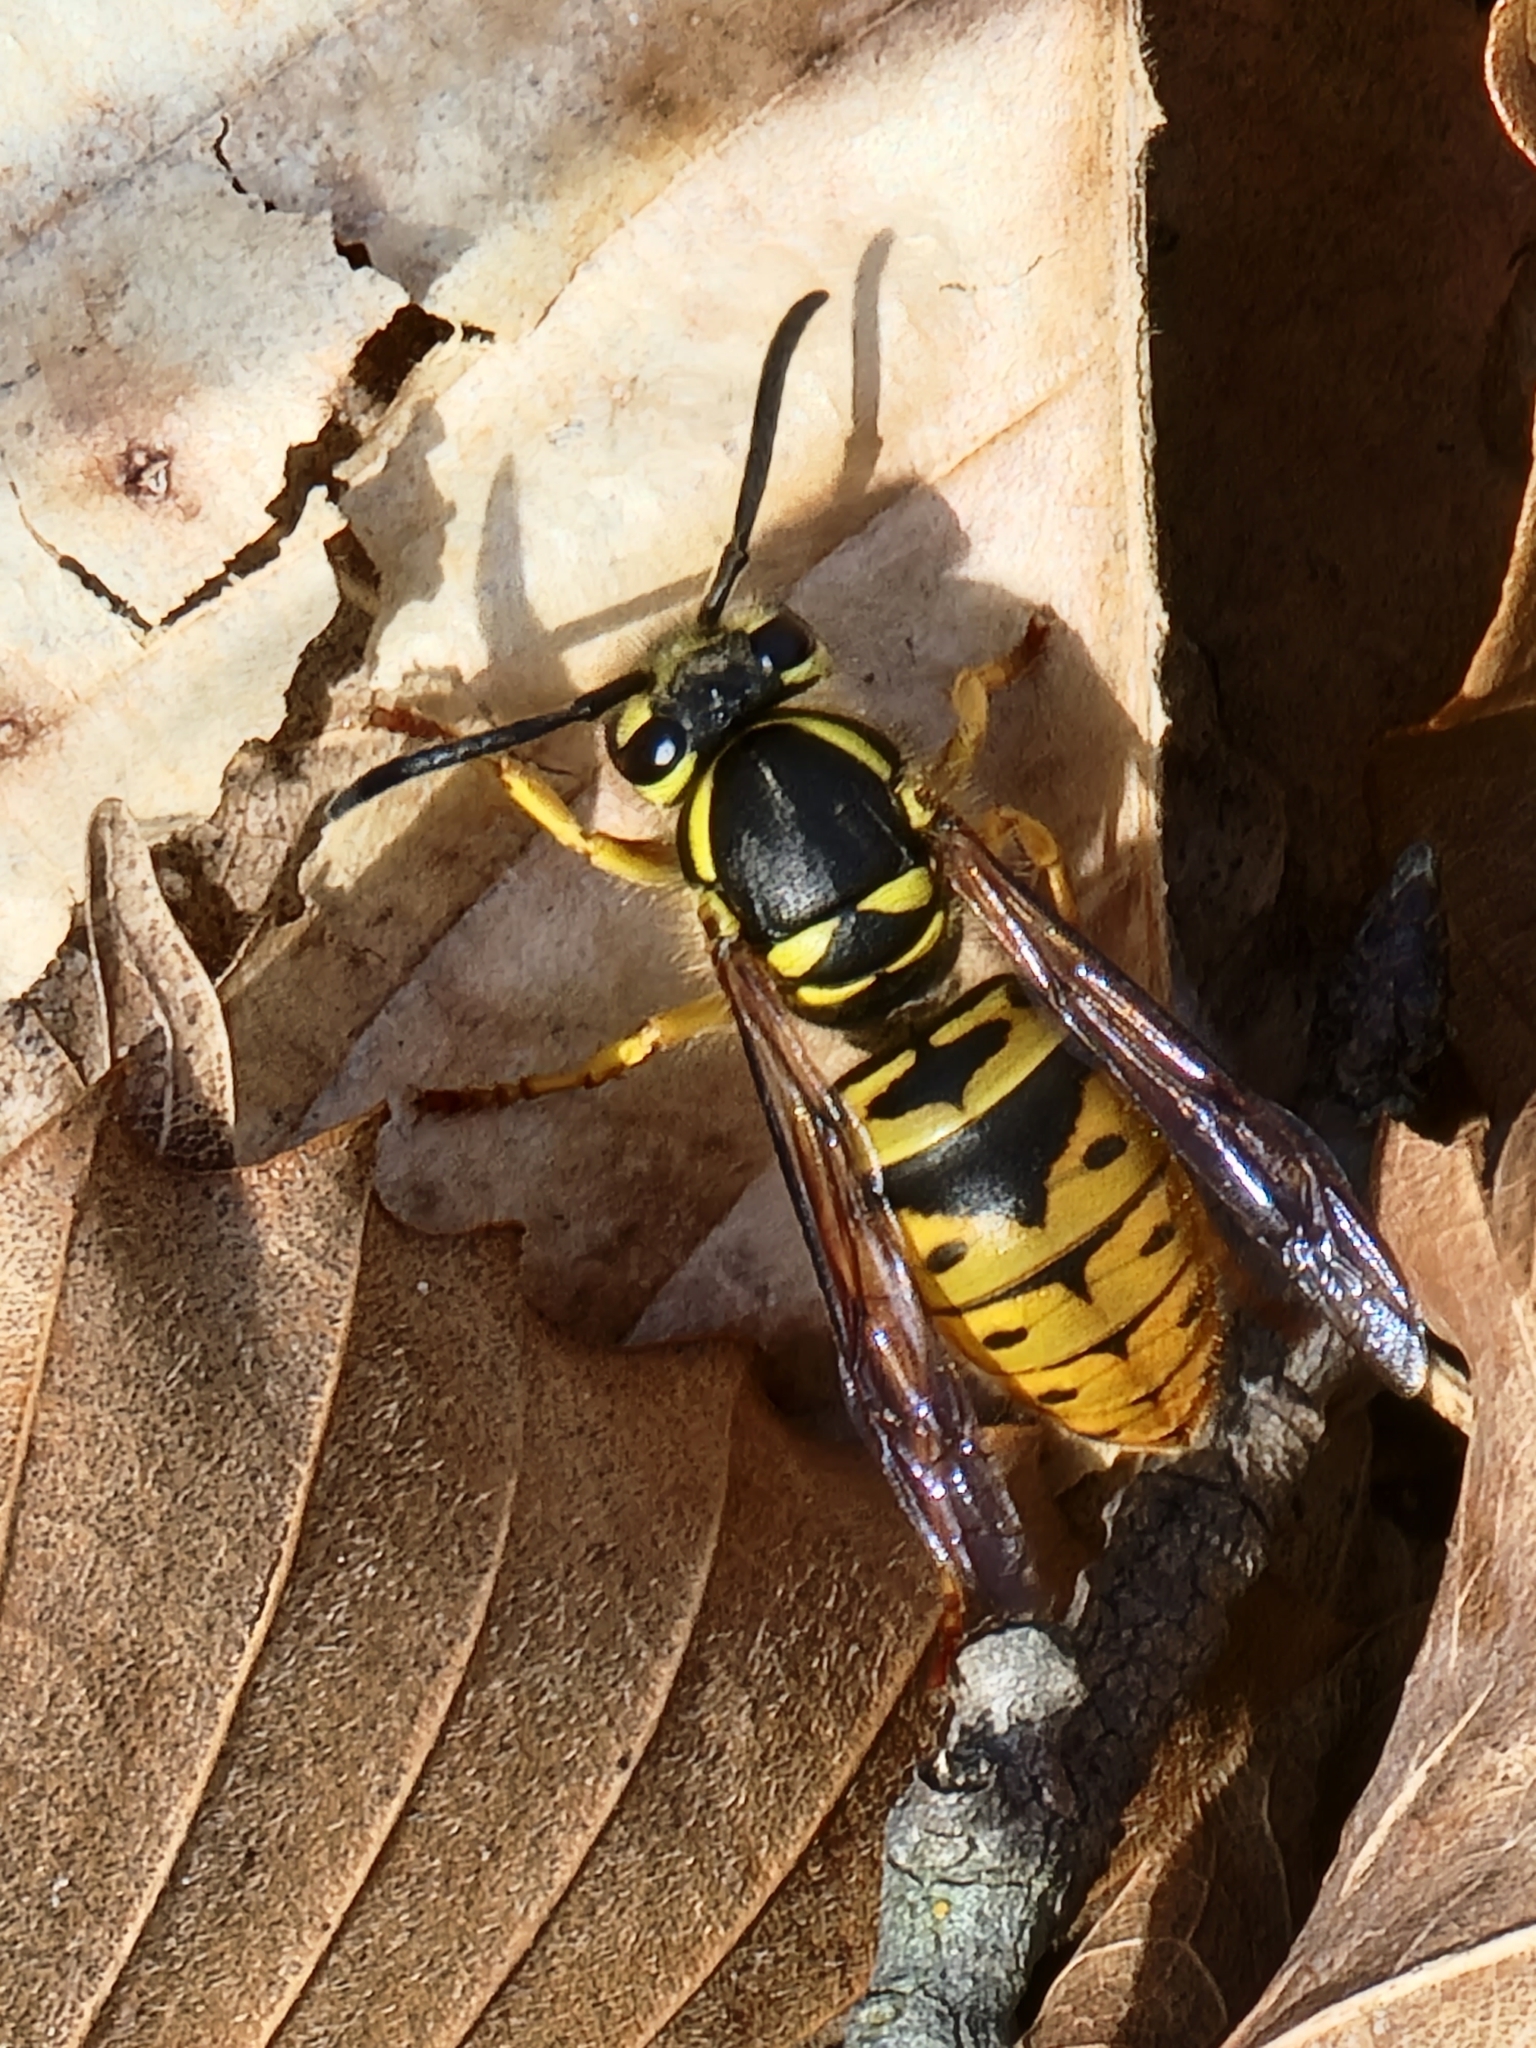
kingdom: Animalia
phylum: Arthropoda
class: Insecta
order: Hymenoptera
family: Vespidae
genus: Vespula
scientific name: Vespula maculifrons
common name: Eastern yellowjacket
